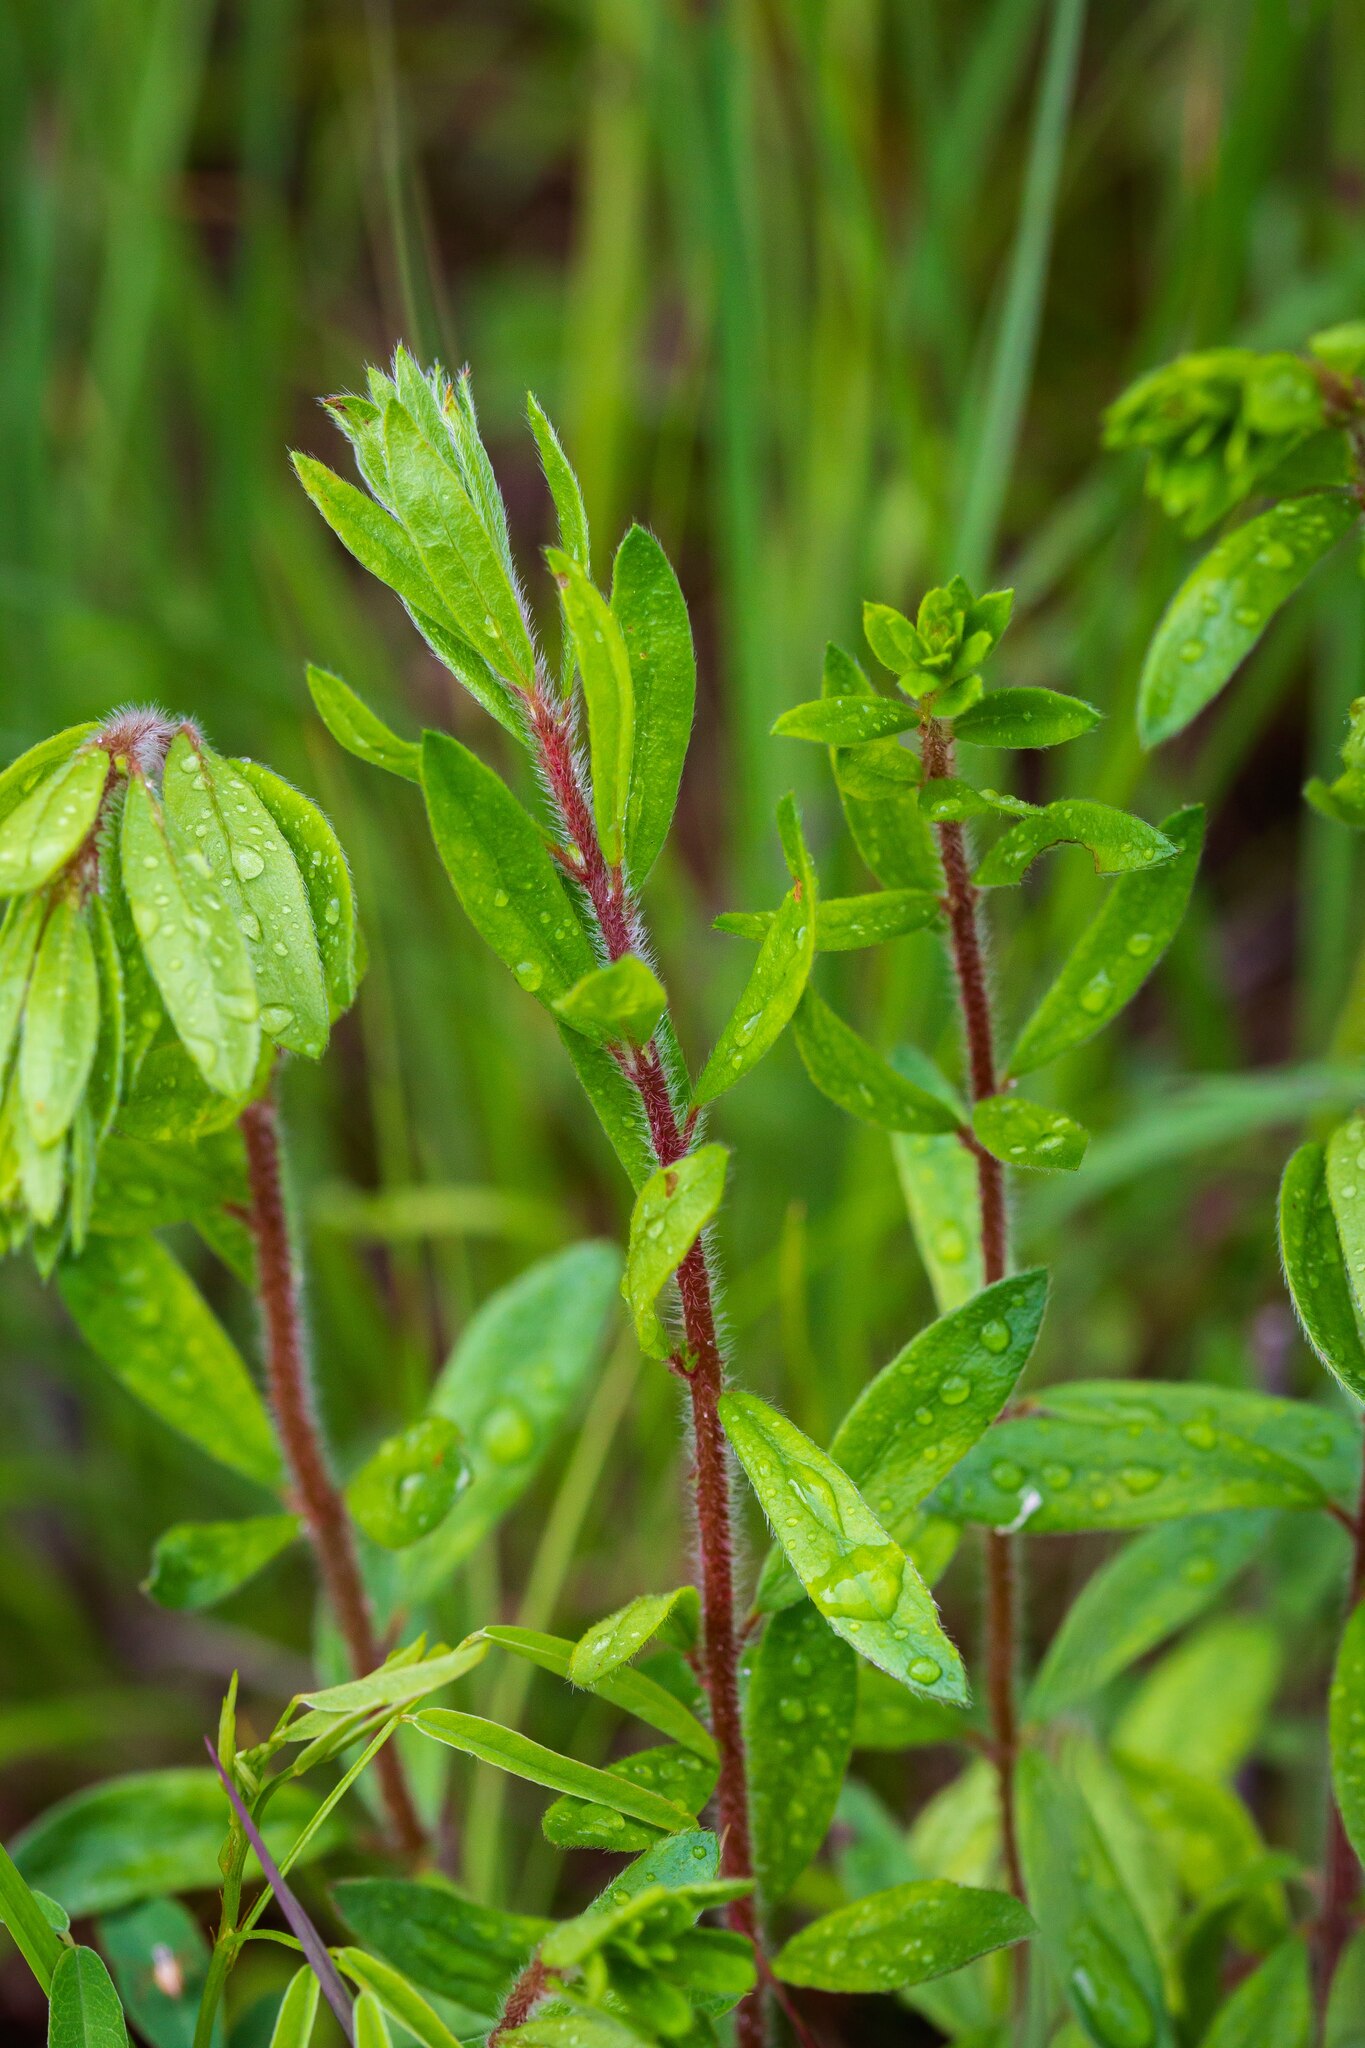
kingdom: Plantae
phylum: Tracheophyta
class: Magnoliopsida
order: Malvales
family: Cistaceae
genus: Lechea
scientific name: Lechea mucronata
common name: Hairy pinweed
